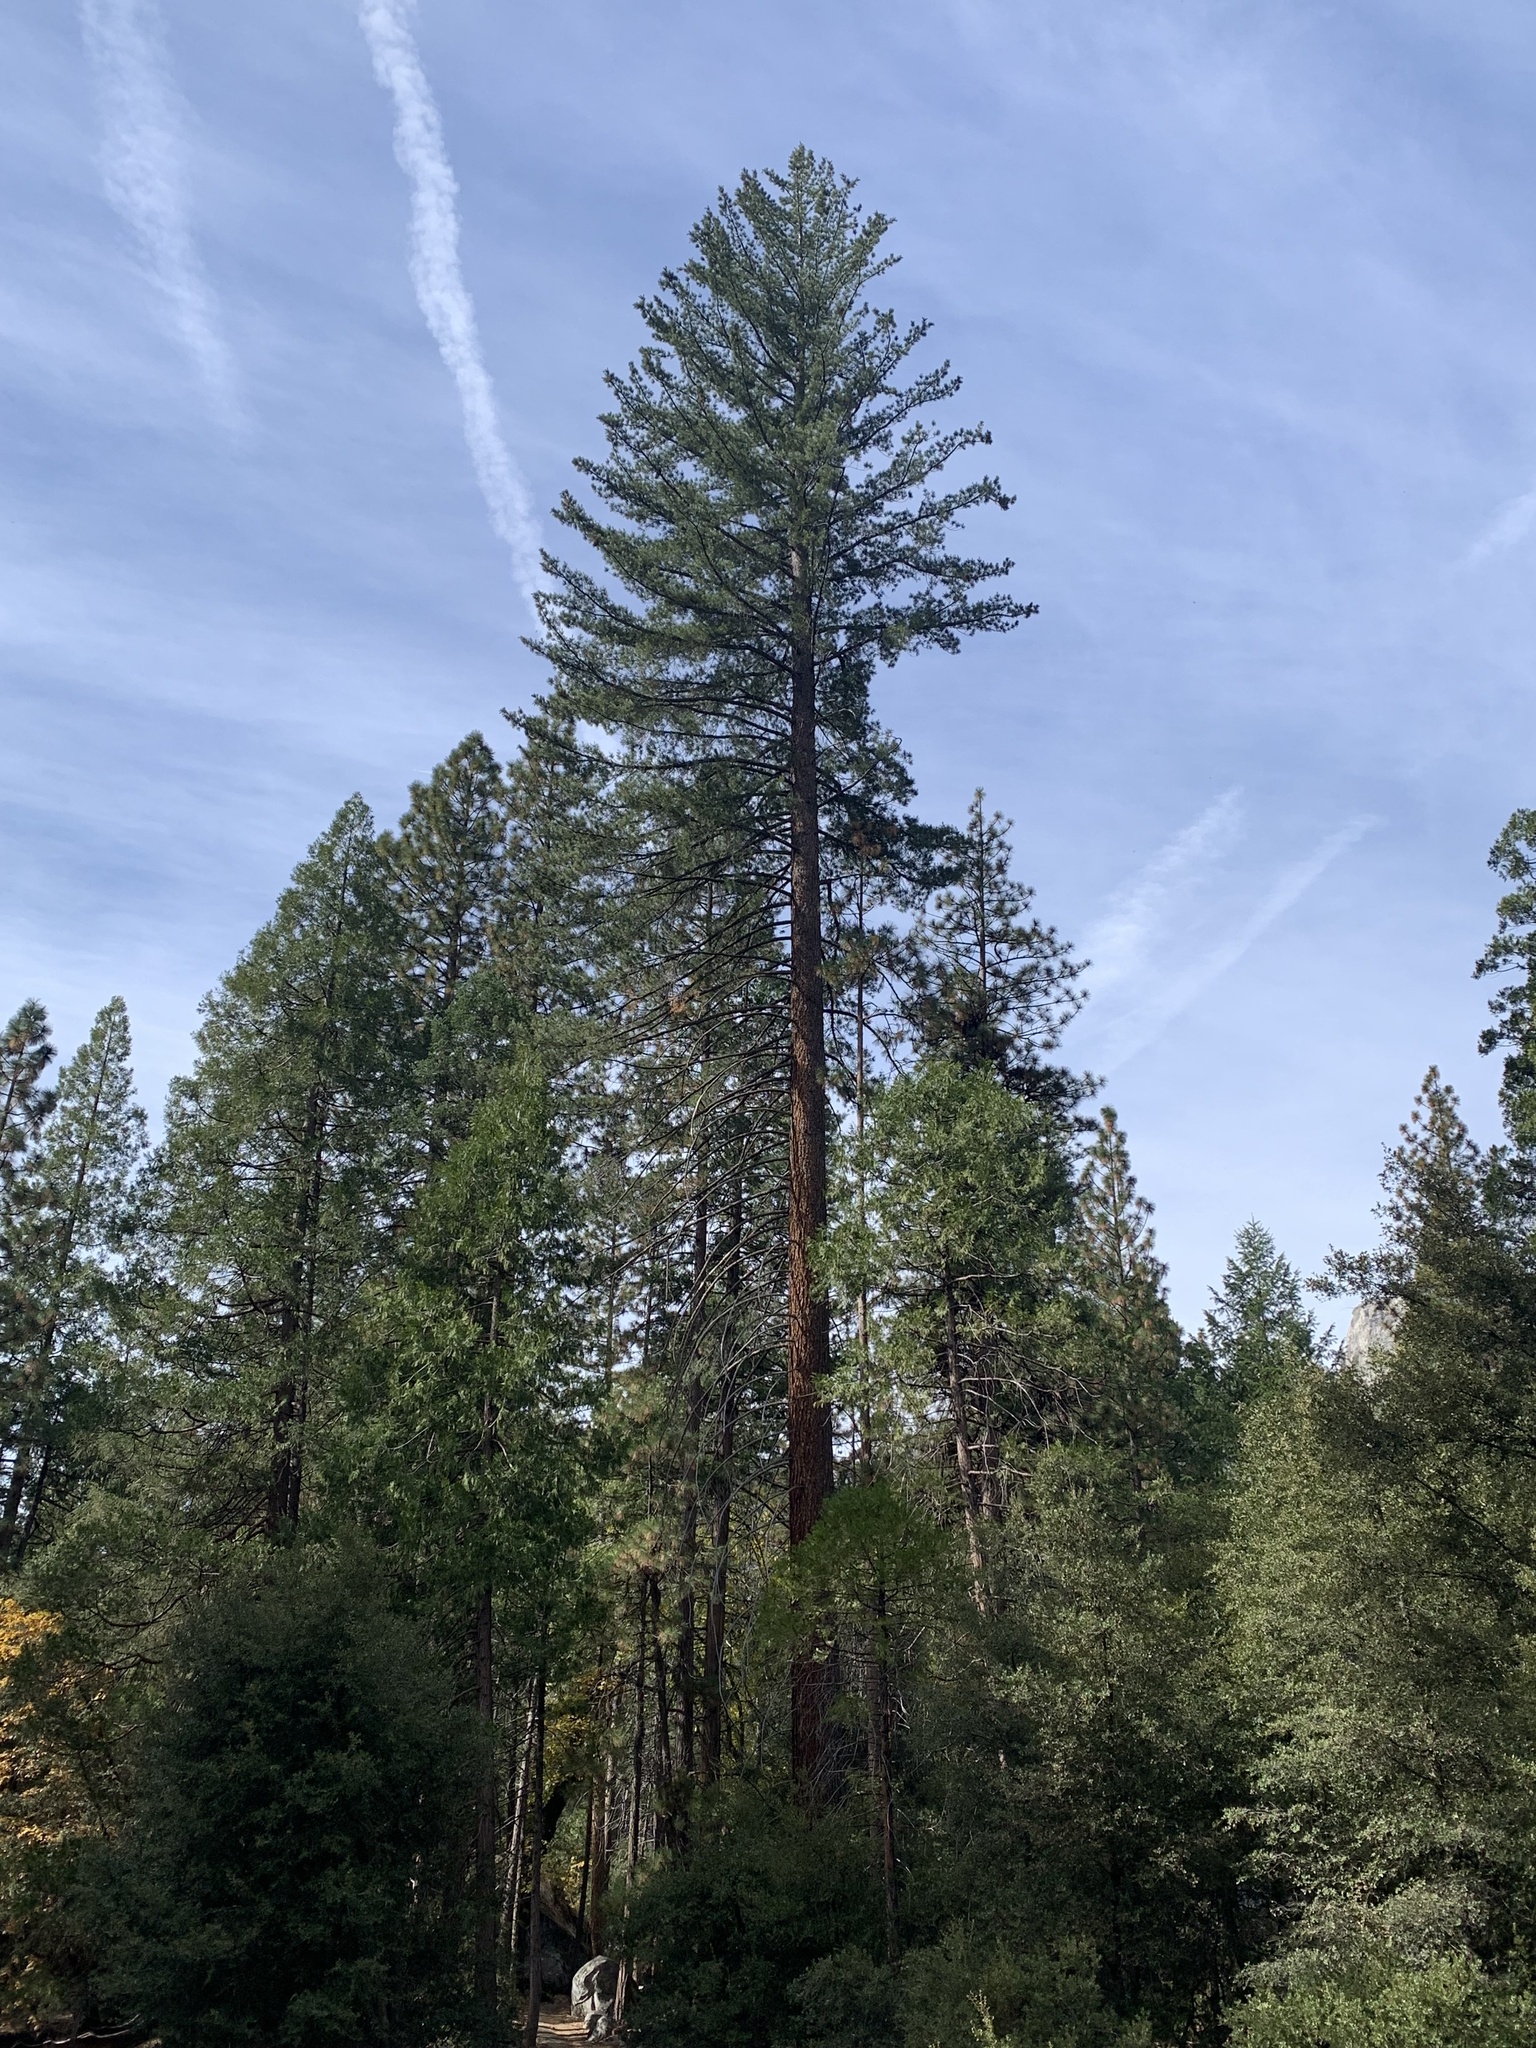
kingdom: Plantae
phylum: Tracheophyta
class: Pinopsida
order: Pinales
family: Pinaceae
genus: Pinus
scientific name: Pinus lambertiana
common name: Sugar pine
